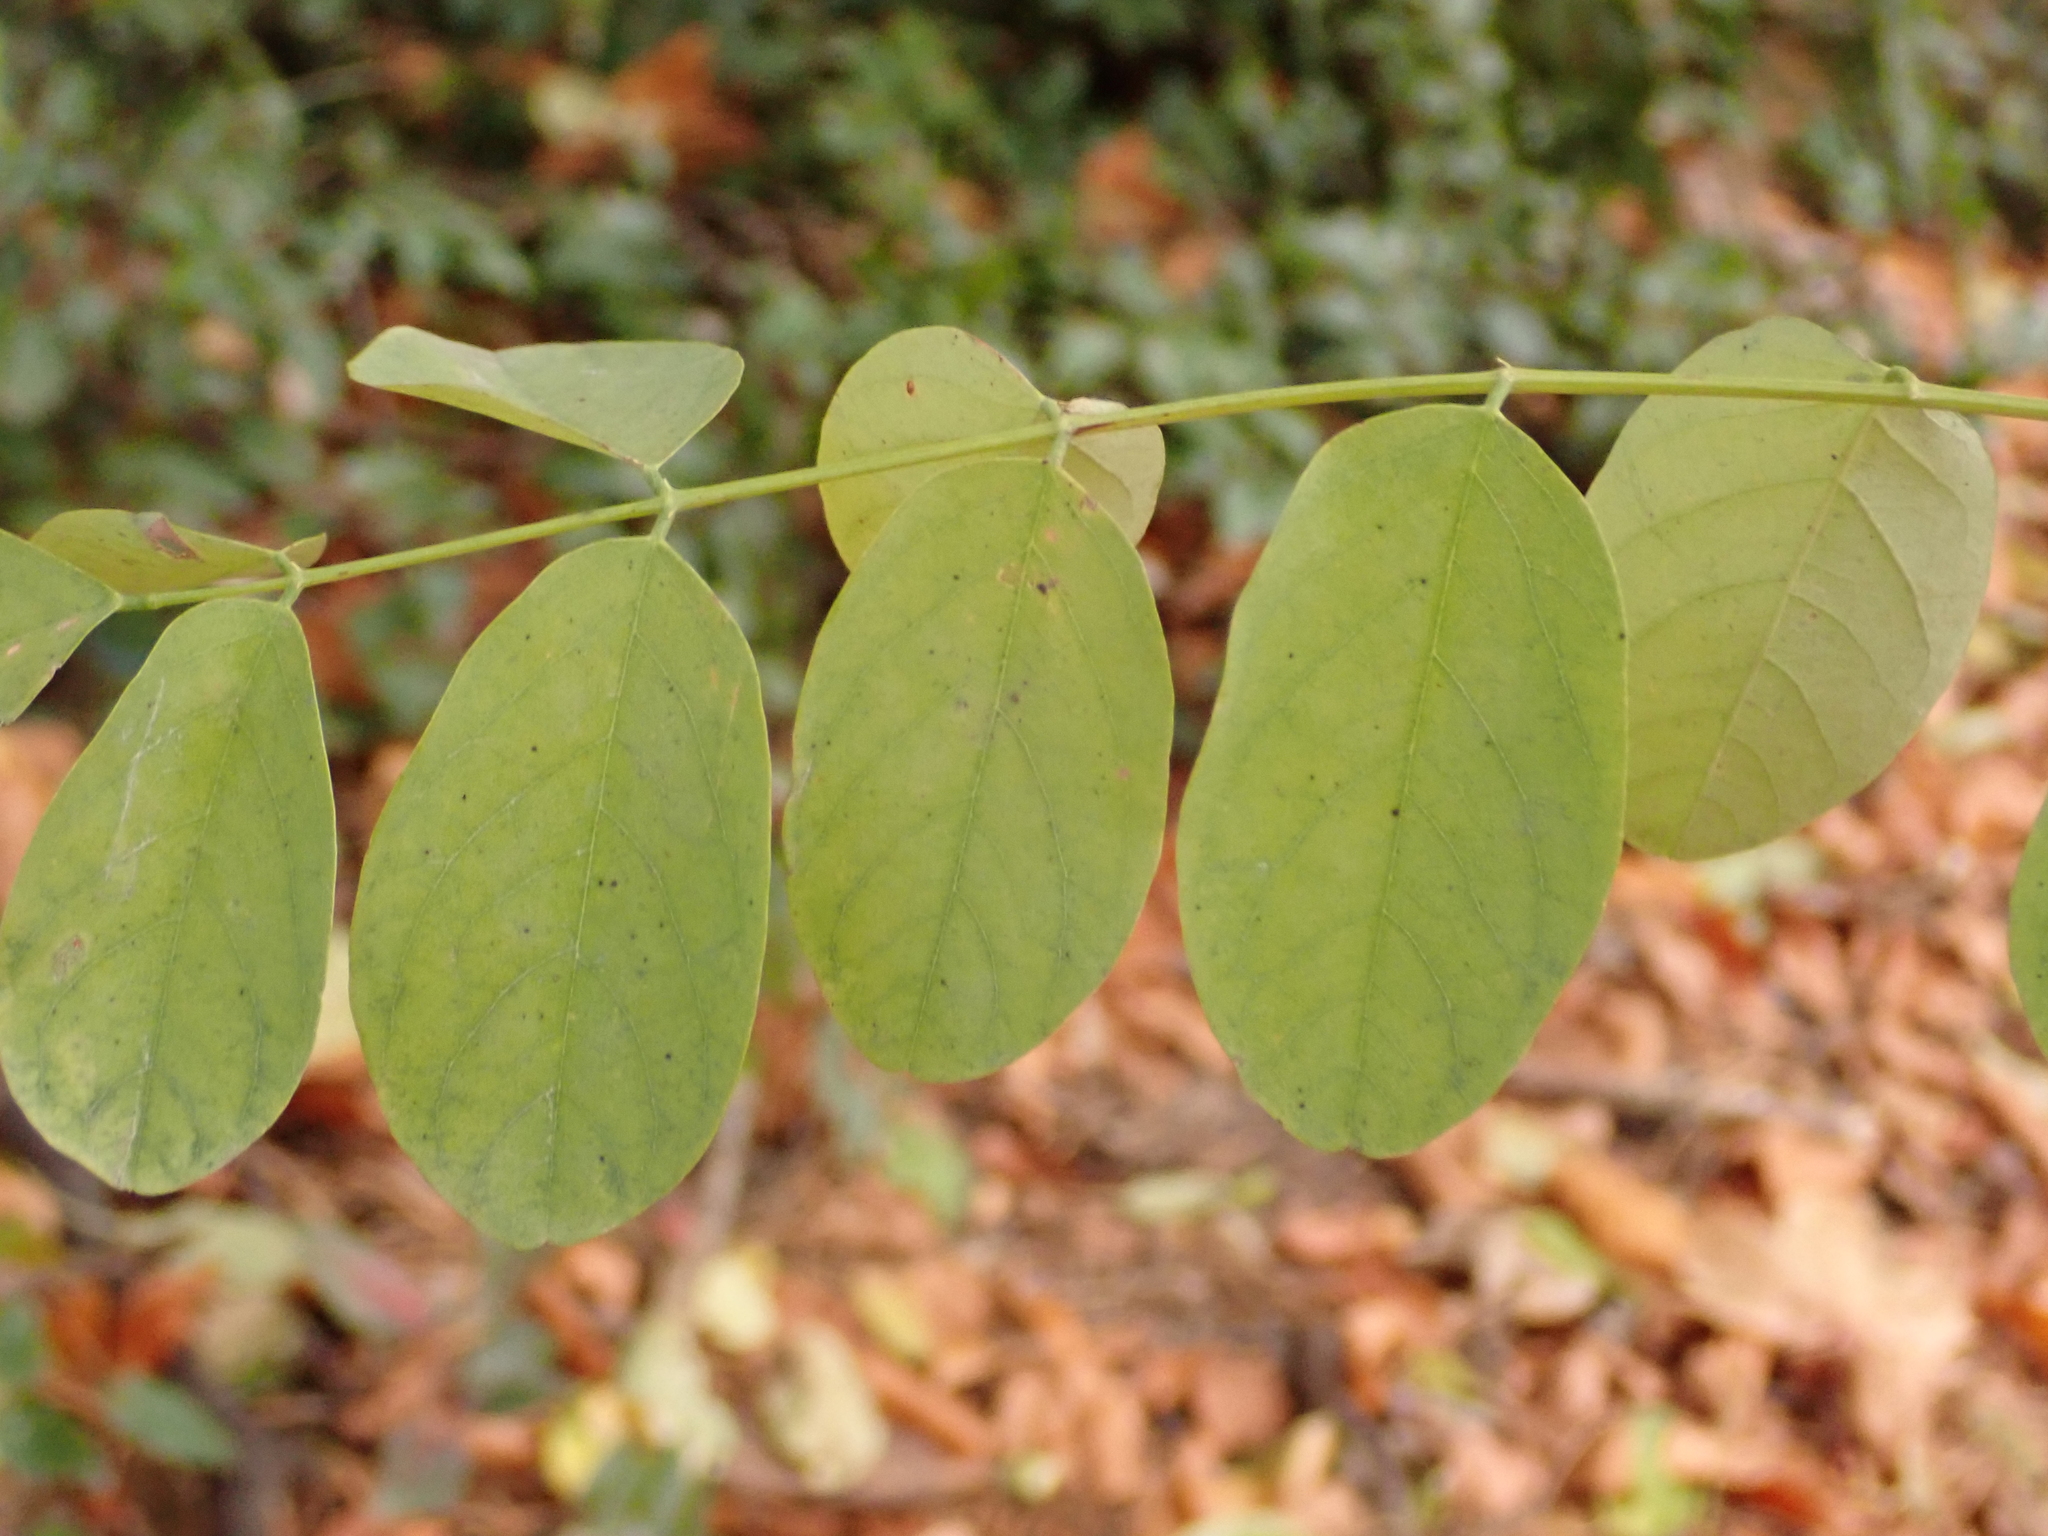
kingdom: Plantae
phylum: Tracheophyta
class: Magnoliopsida
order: Fabales
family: Fabaceae
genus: Robinia
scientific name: Robinia pseudoacacia
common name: Black locust
